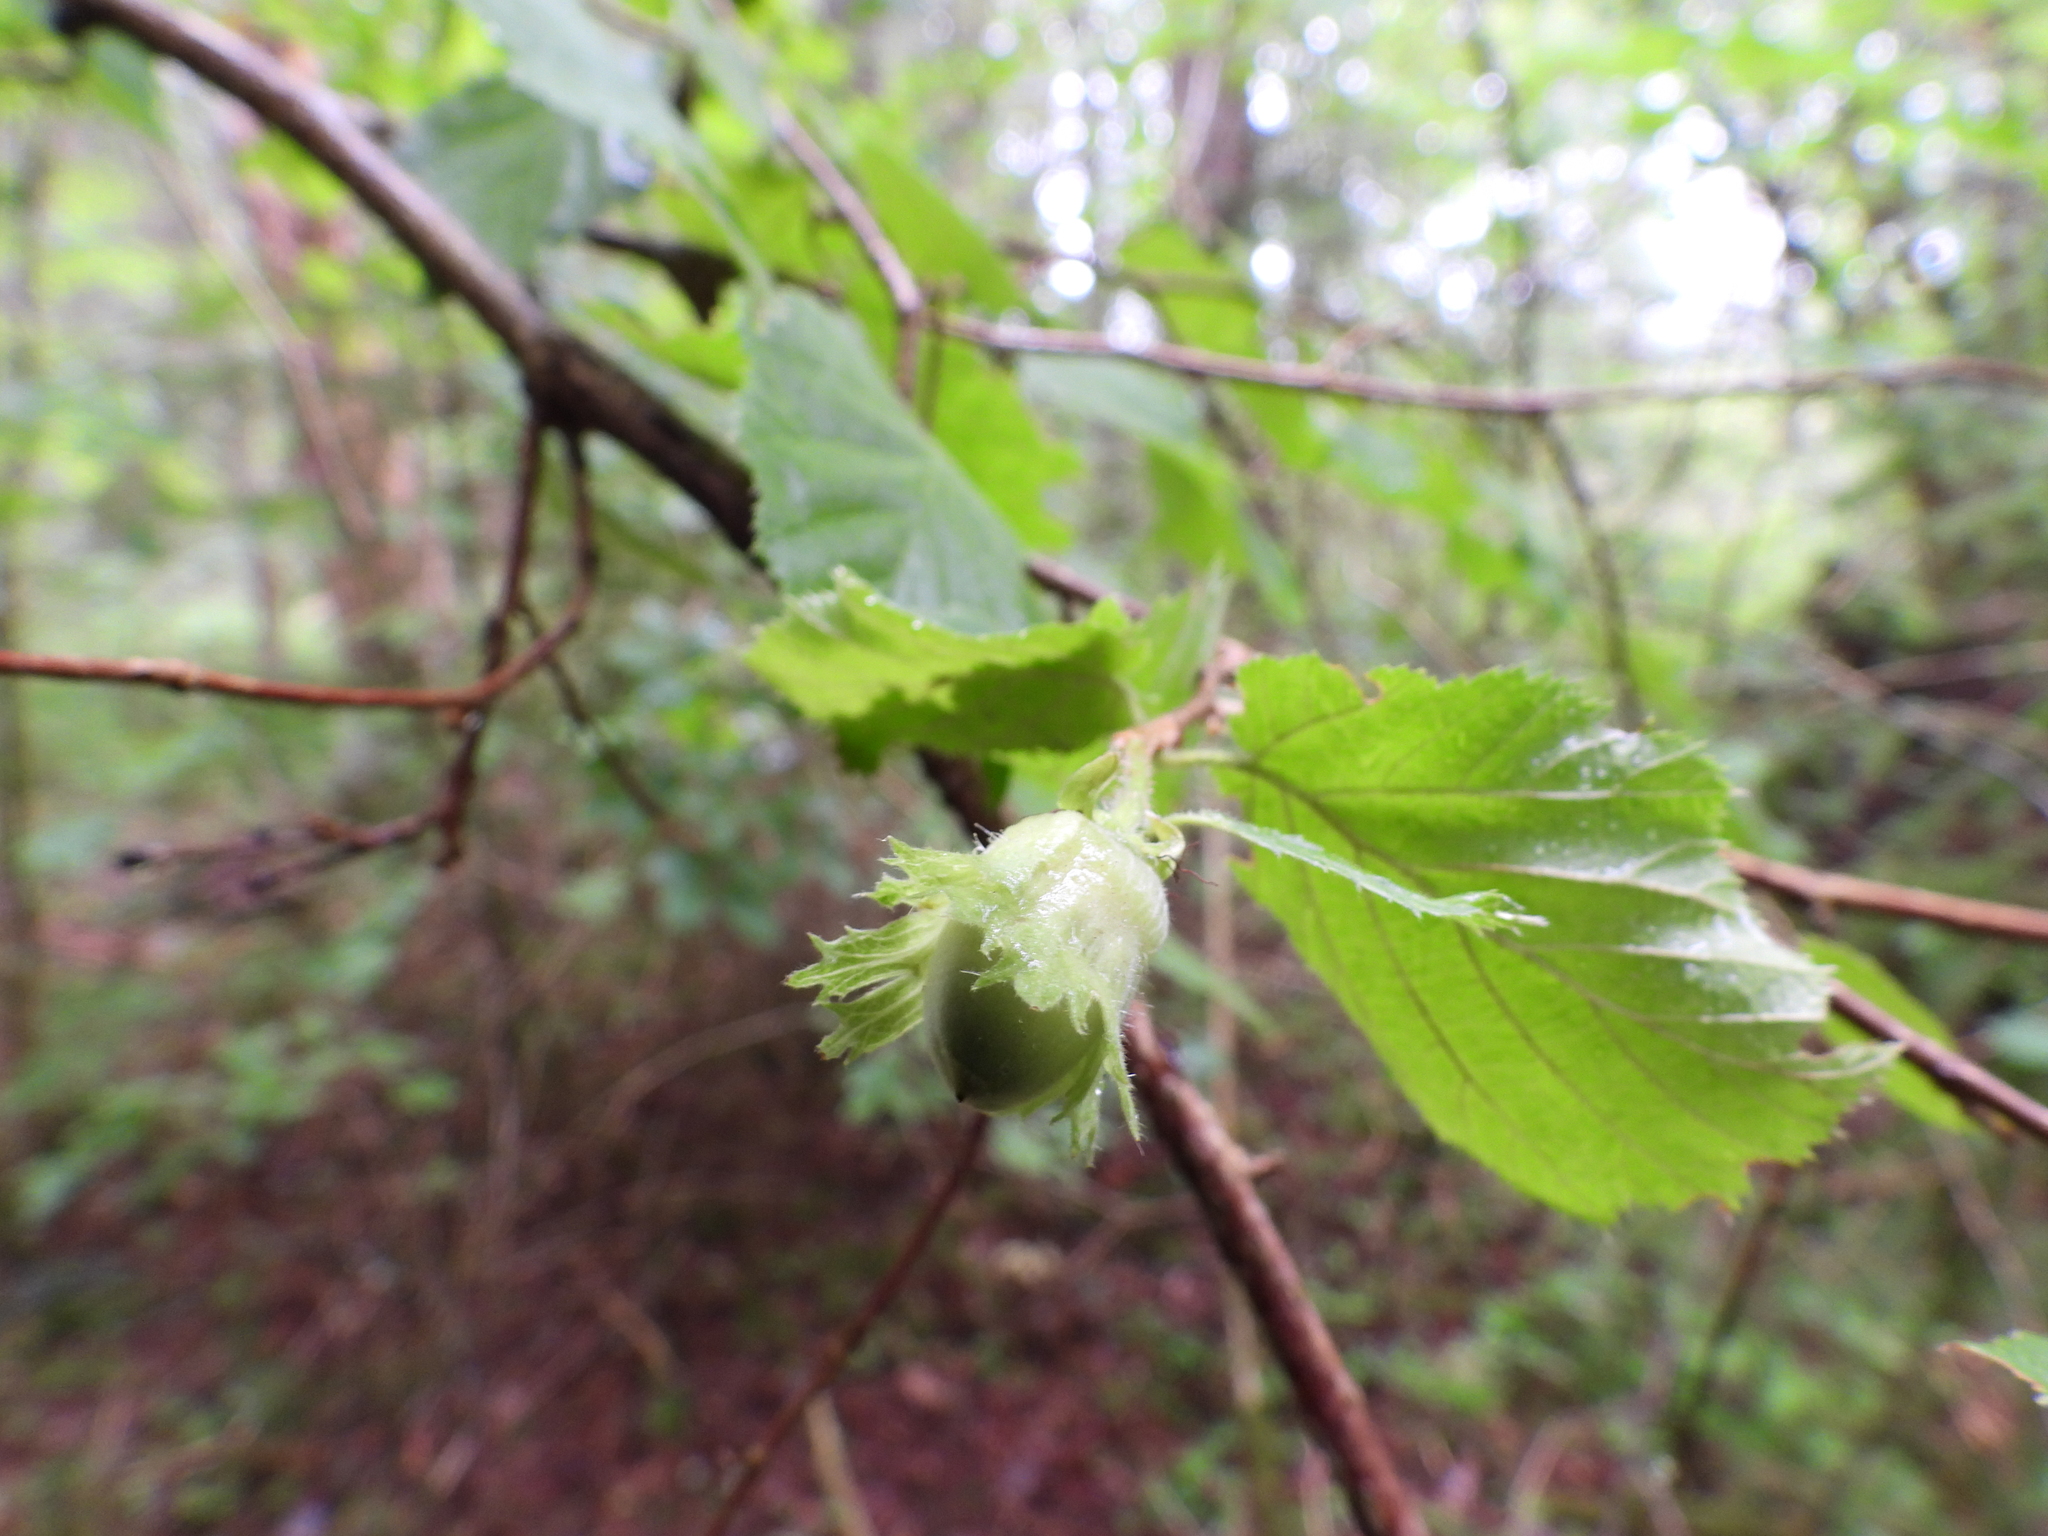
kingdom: Plantae
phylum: Tracheophyta
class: Magnoliopsida
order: Fagales
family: Betulaceae
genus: Corylus
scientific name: Corylus avellana
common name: European hazel
